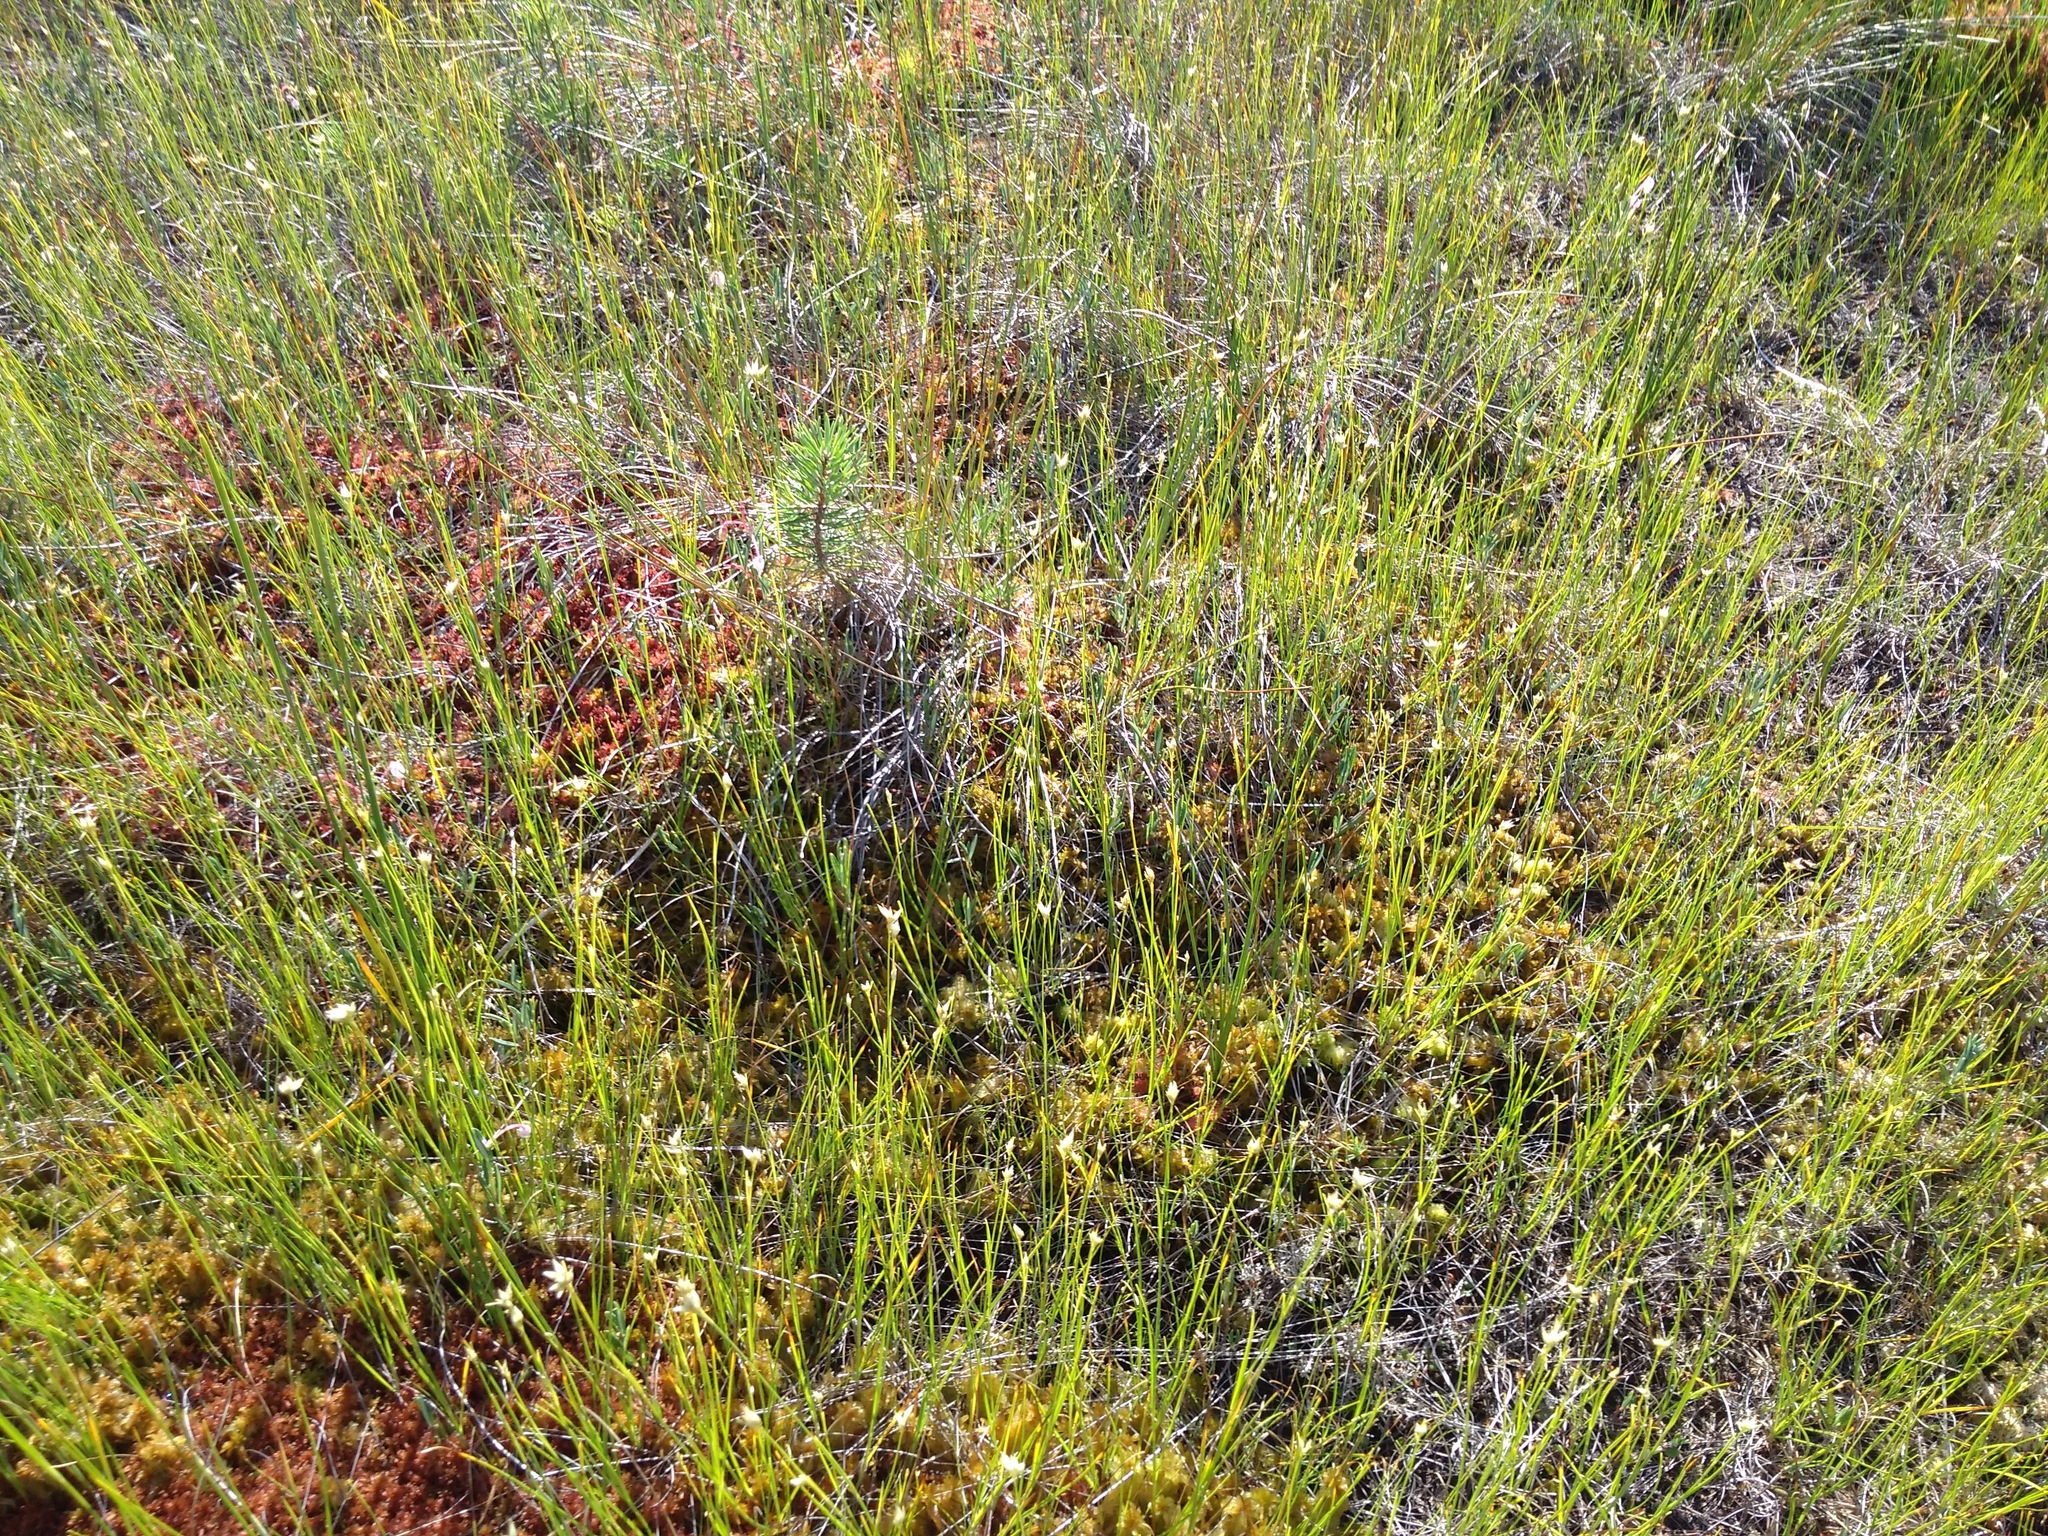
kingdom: Plantae
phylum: Tracheophyta
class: Liliopsida
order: Poales
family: Cyperaceae
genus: Rhynchospora
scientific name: Rhynchospora alba
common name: White beak-sedge
